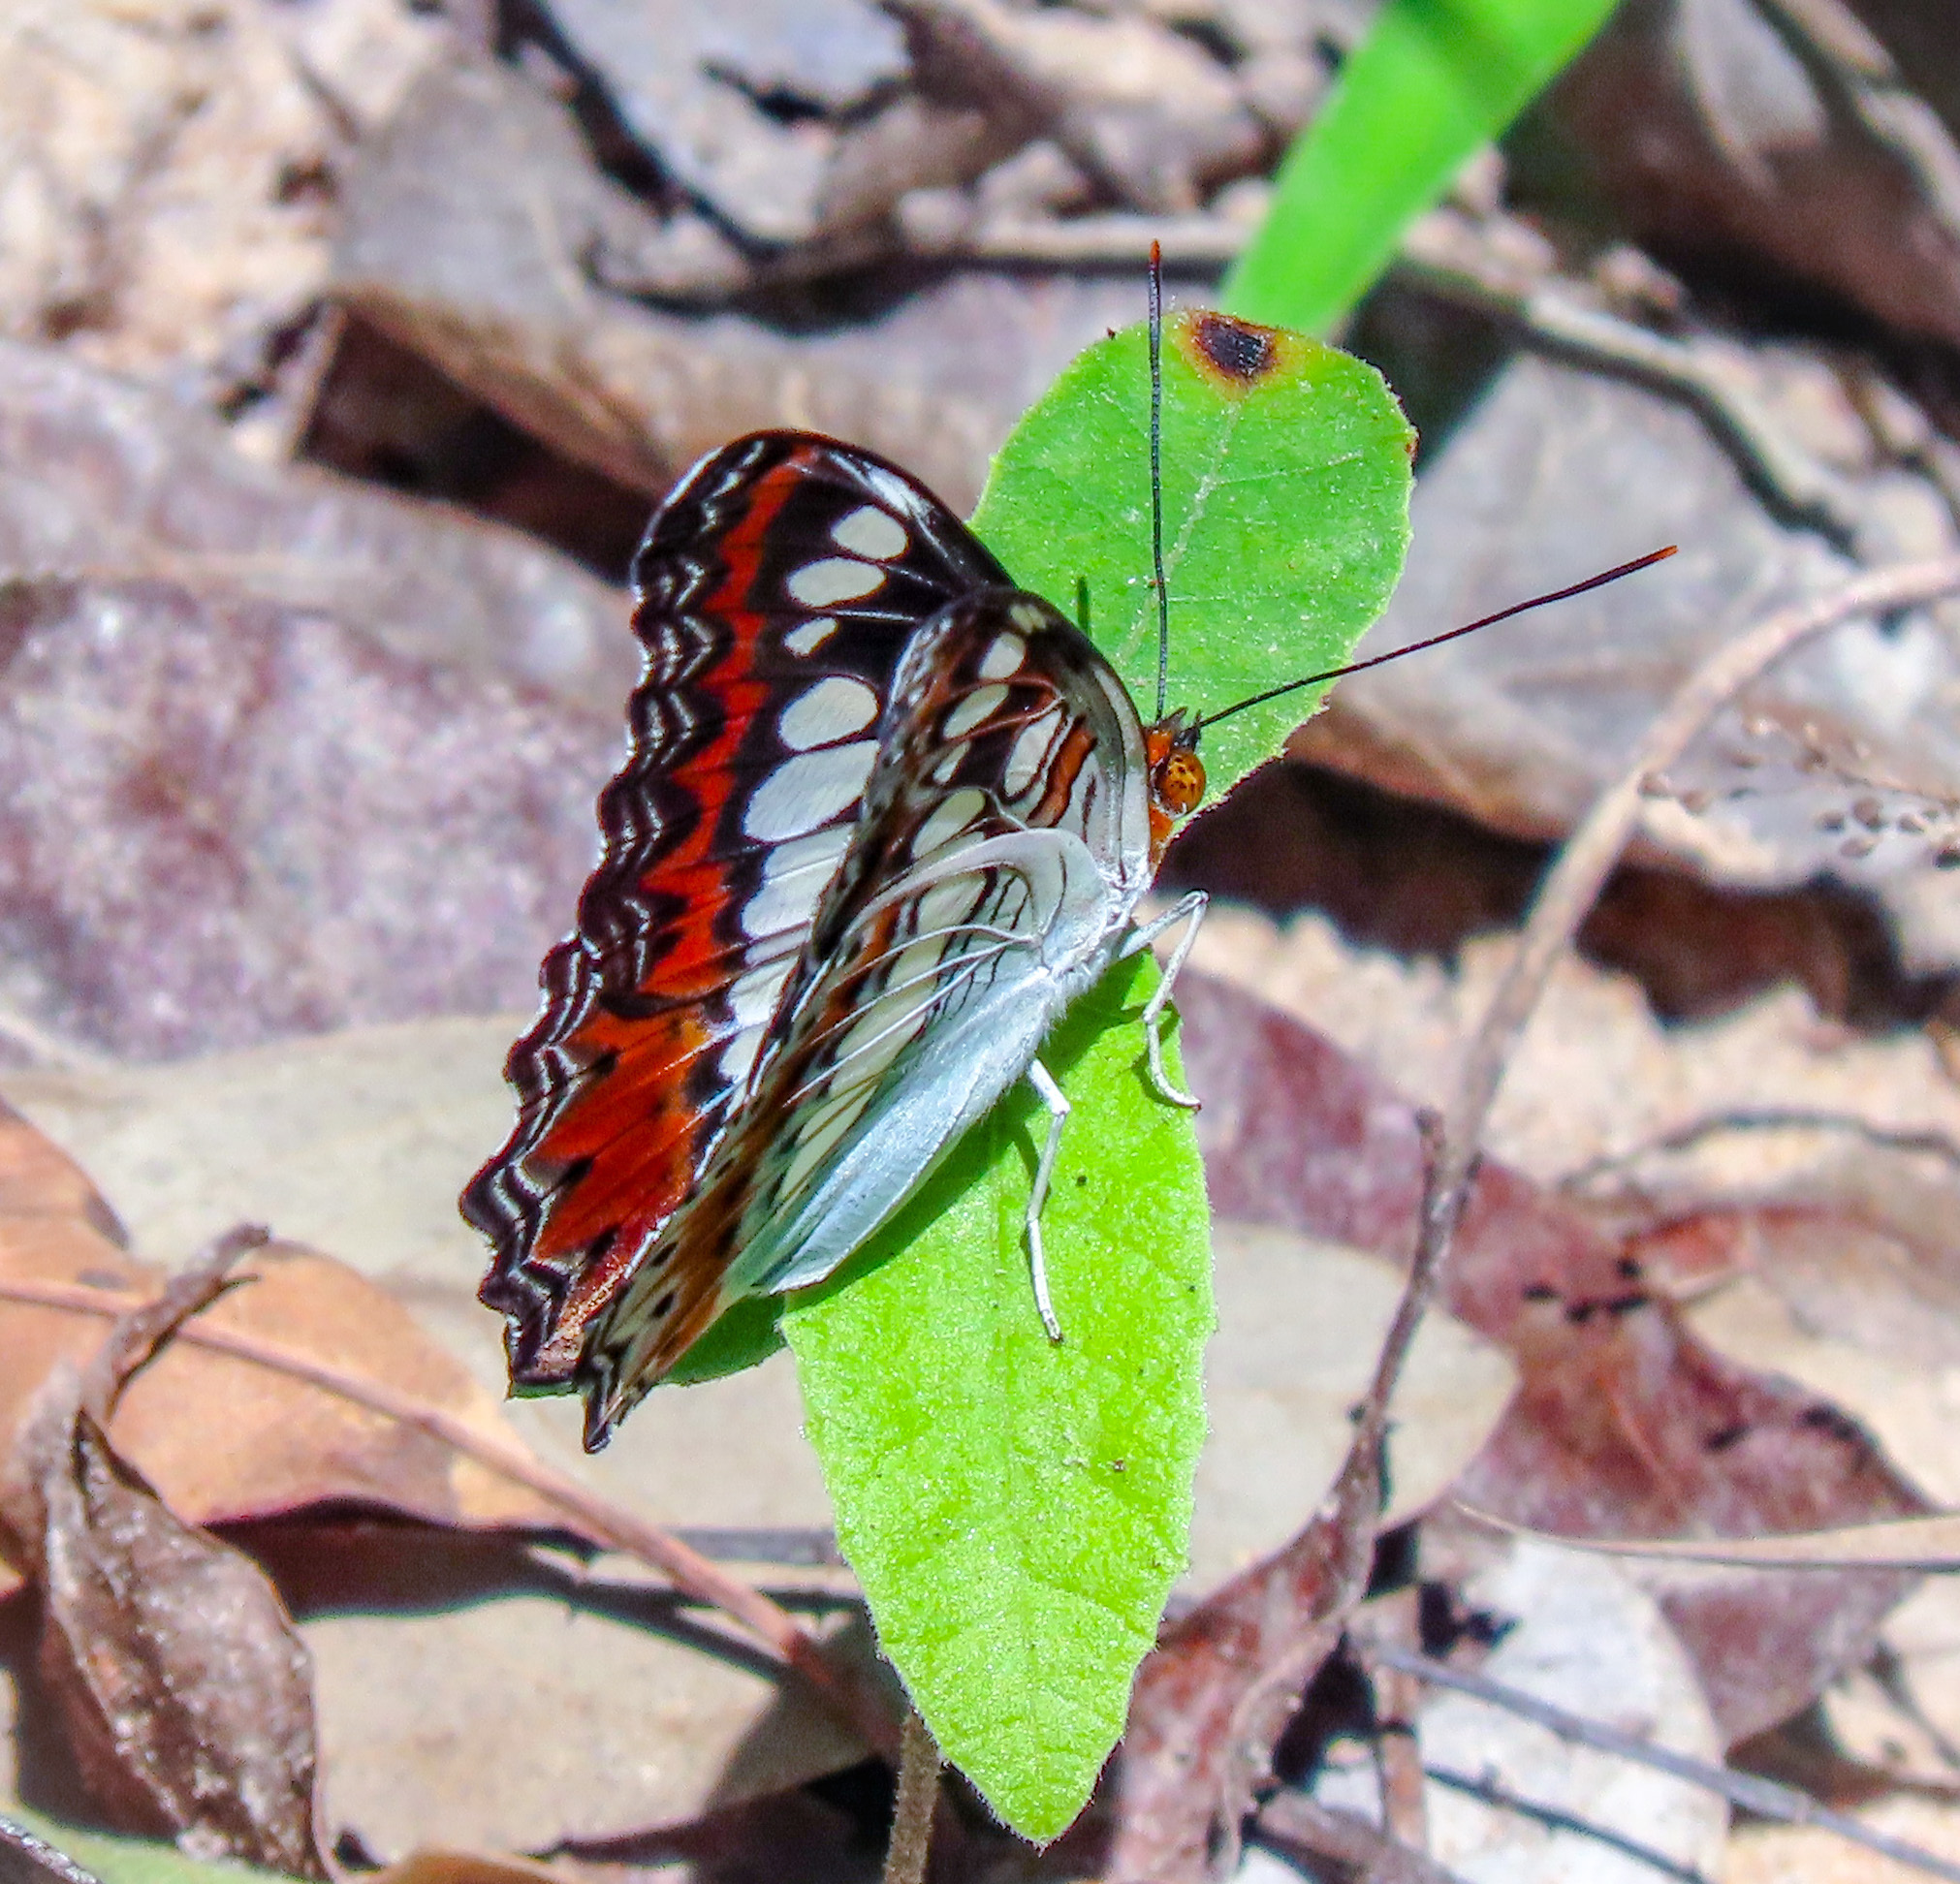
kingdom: Animalia
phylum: Arthropoda
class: Insecta
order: Lepidoptera
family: Nymphalidae
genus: Limenitis
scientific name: Limenitis Moduza procris
